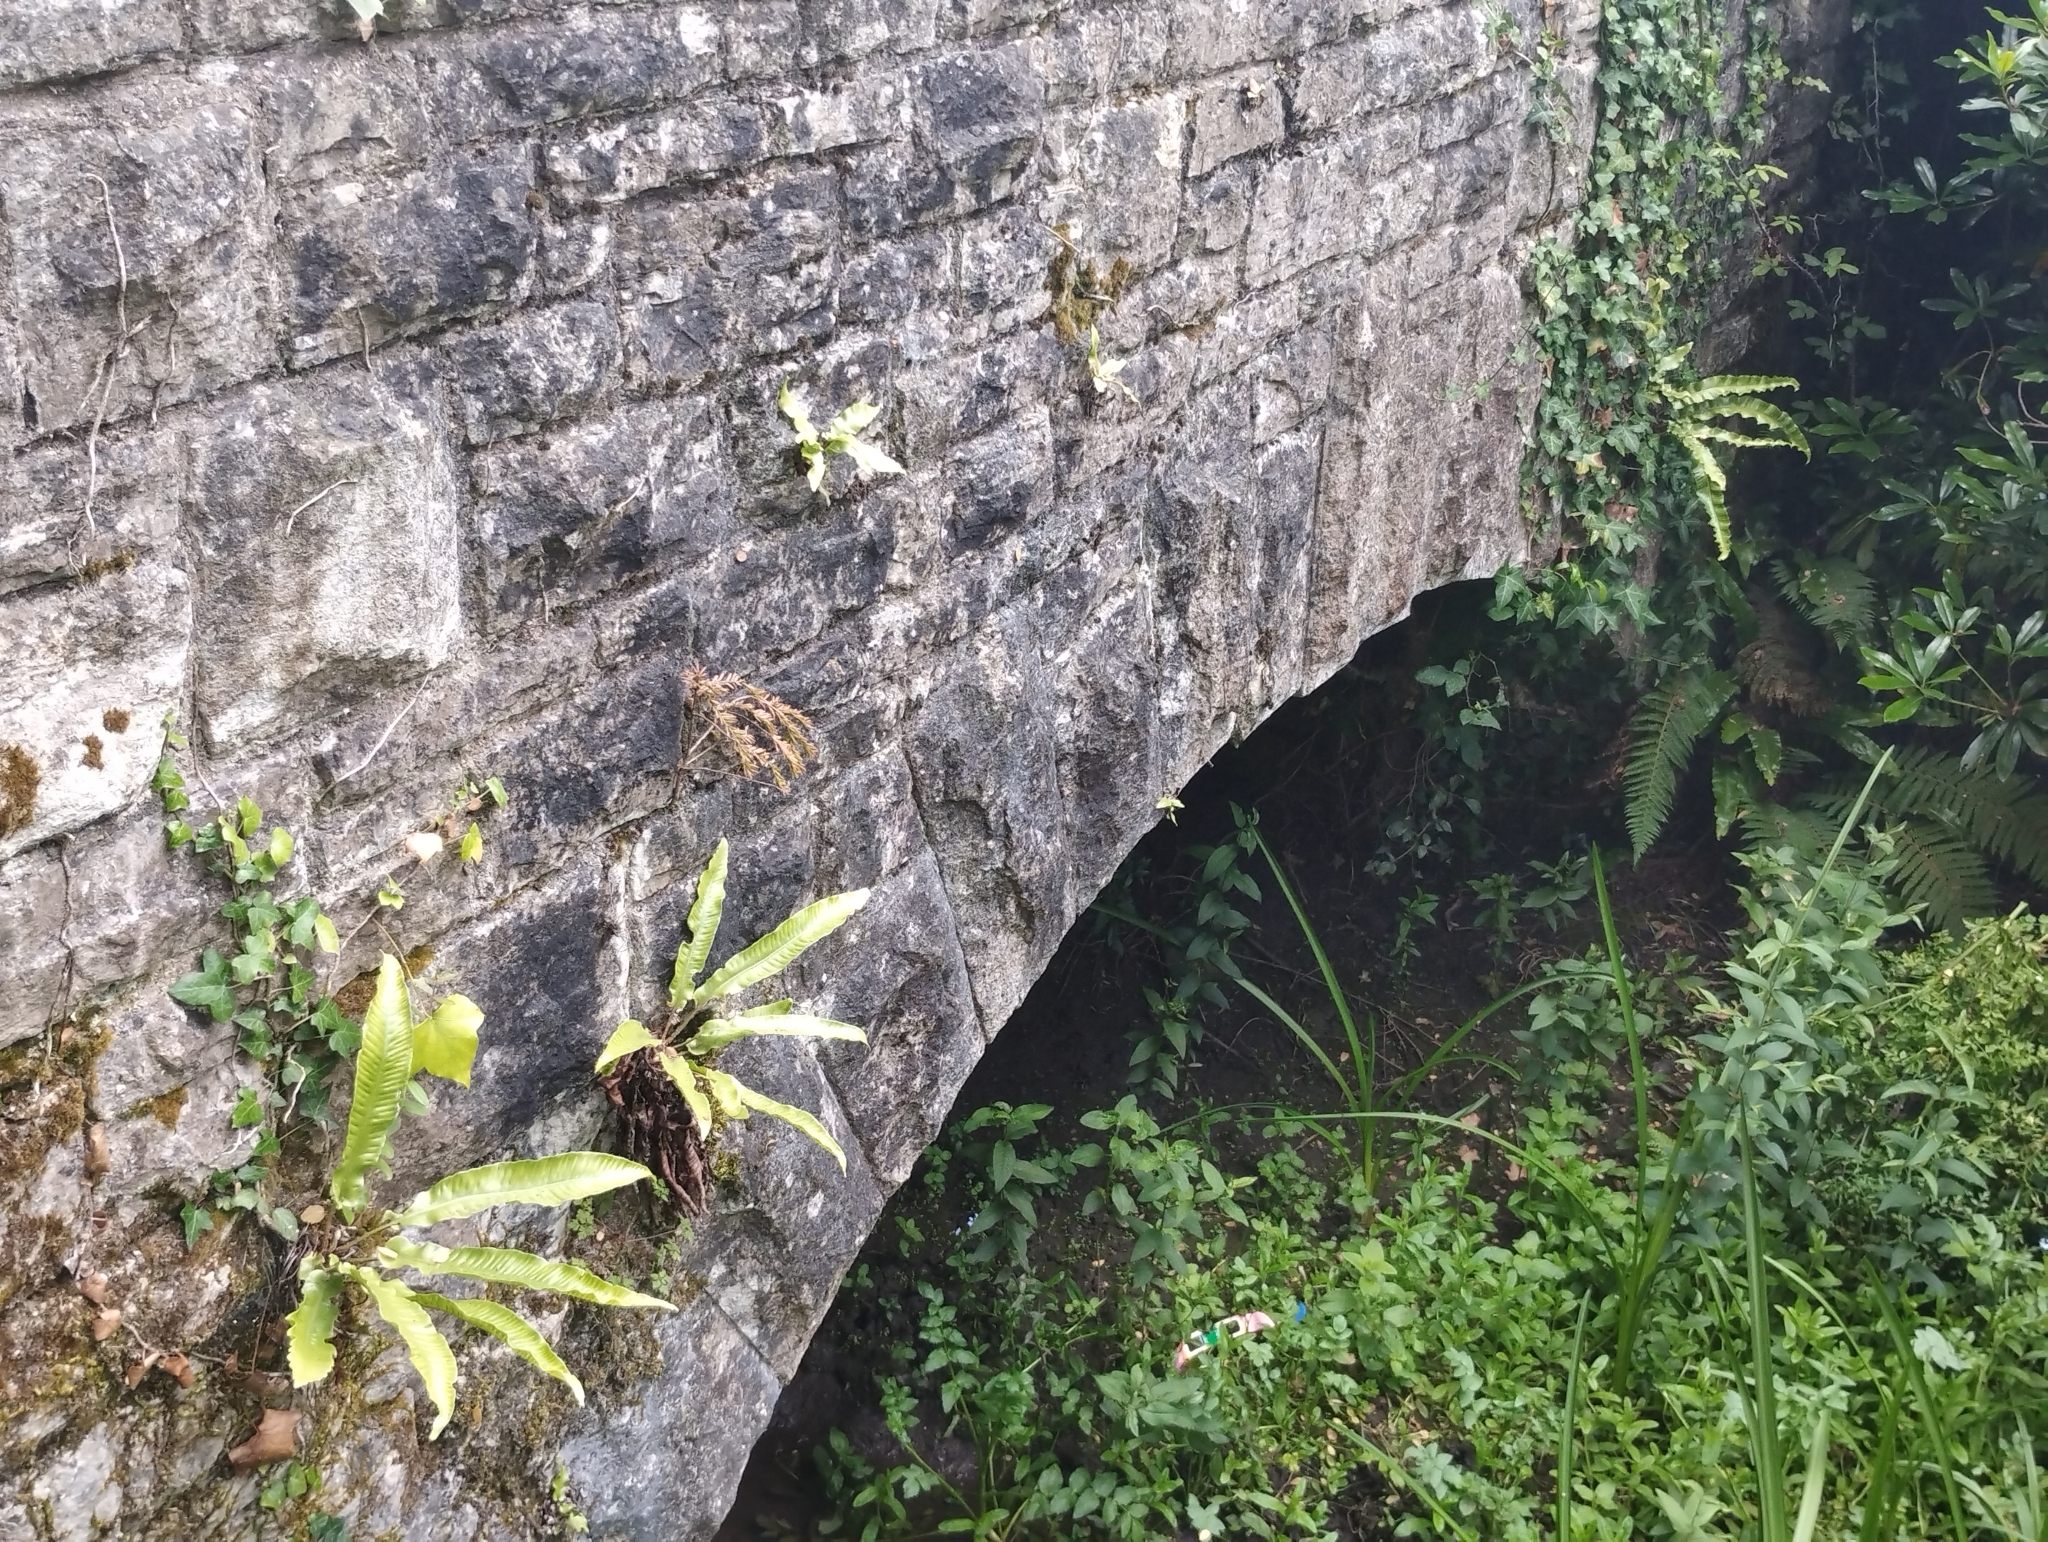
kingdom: Plantae
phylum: Tracheophyta
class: Polypodiopsida
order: Polypodiales
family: Aspleniaceae
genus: Asplenium
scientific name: Asplenium scolopendrium
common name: Hart's-tongue fern
